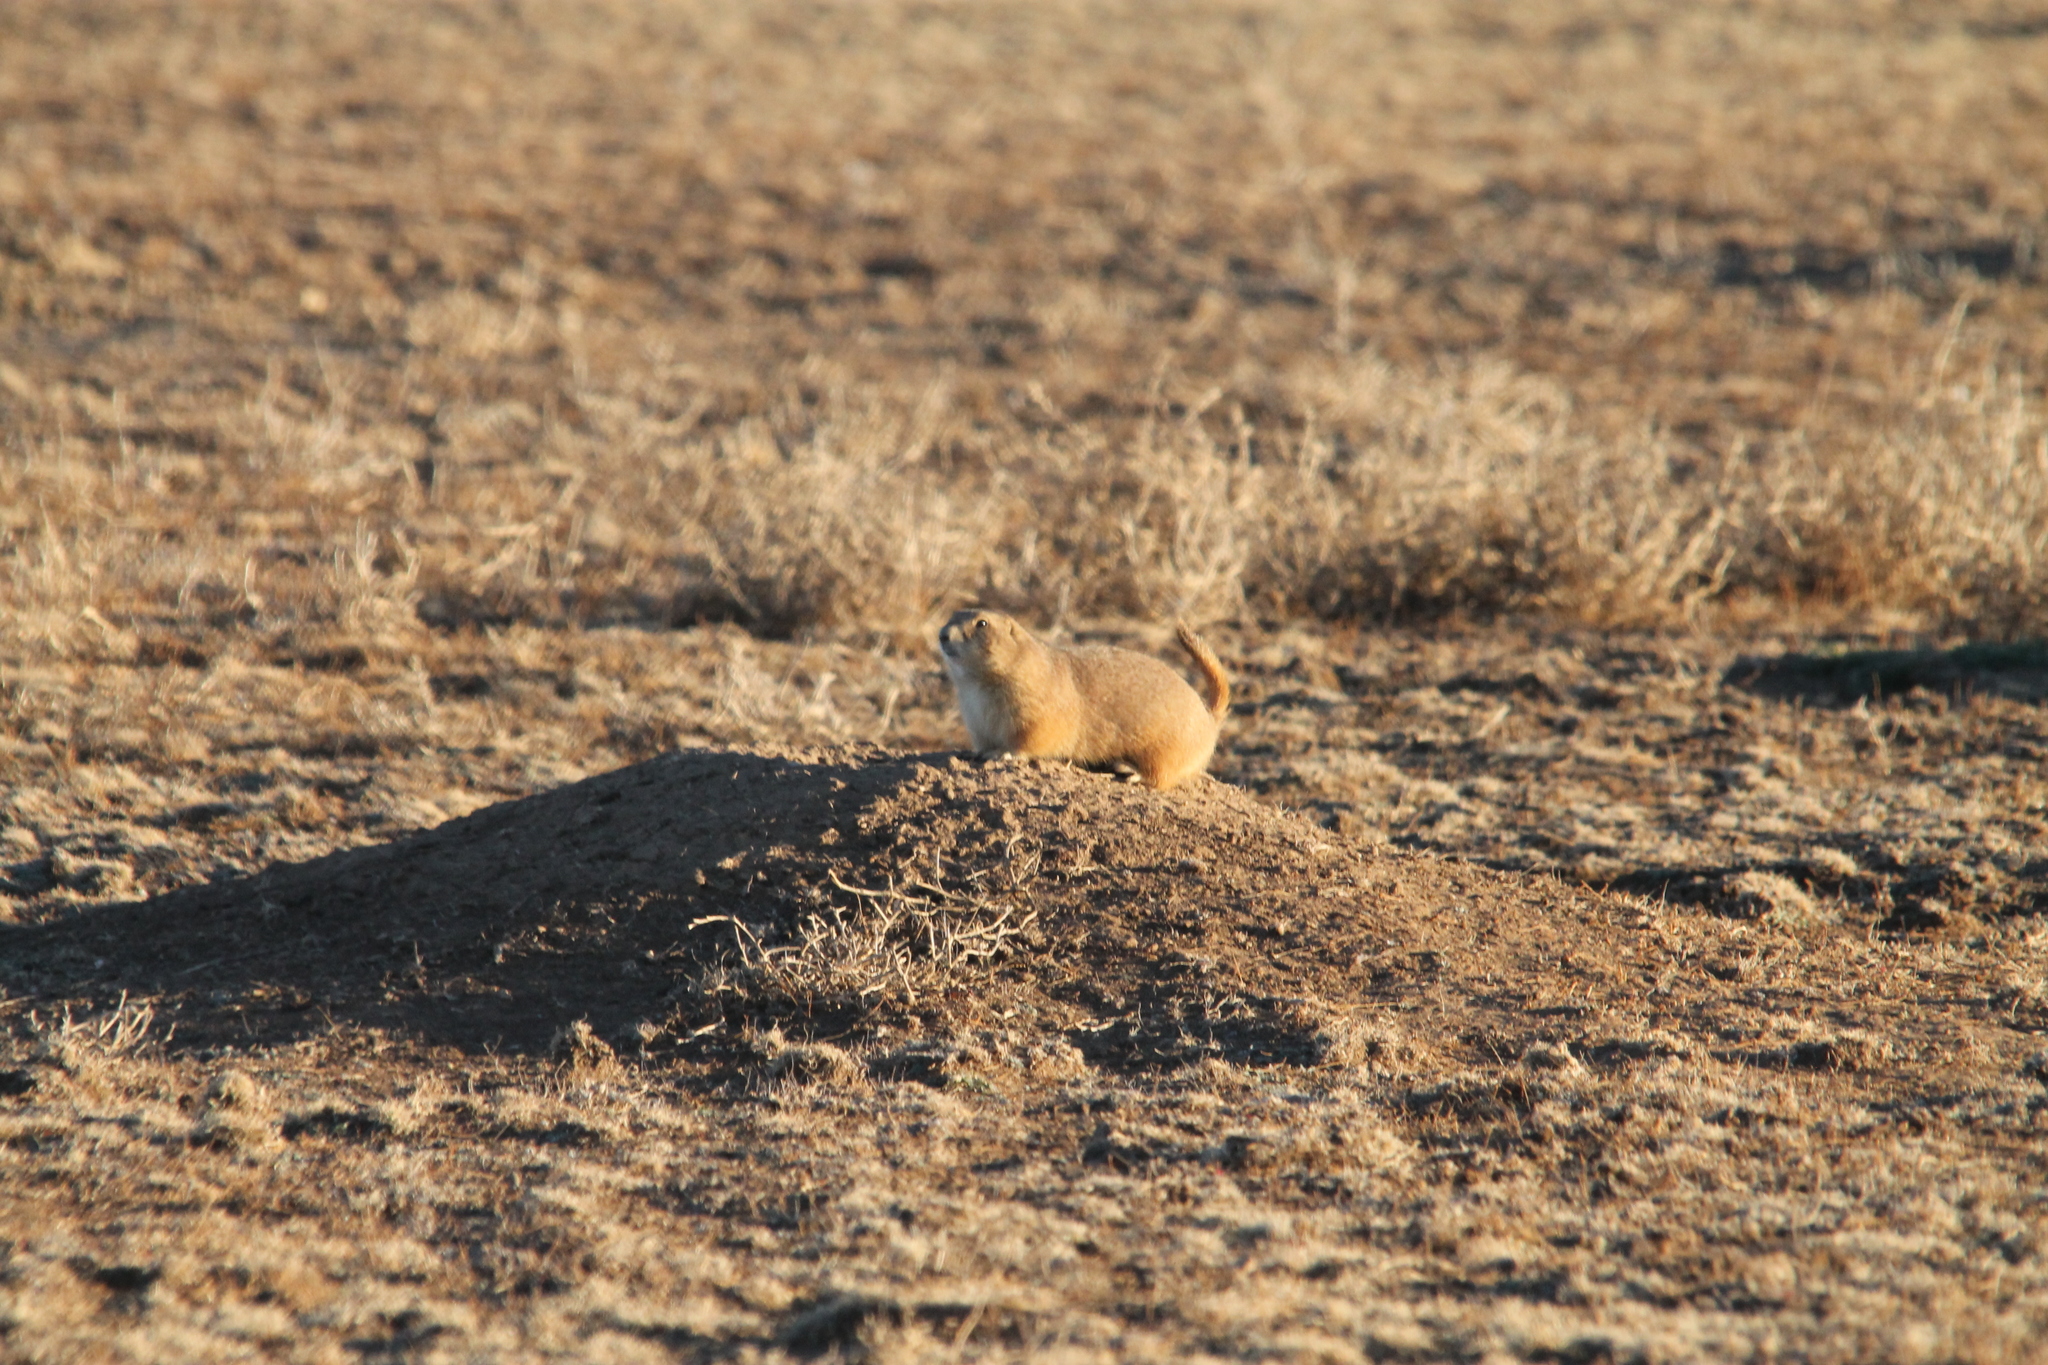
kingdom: Animalia
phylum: Chordata
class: Mammalia
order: Rodentia
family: Sciuridae
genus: Cynomys
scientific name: Cynomys ludovicianus
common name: Black-tailed prairie dog
